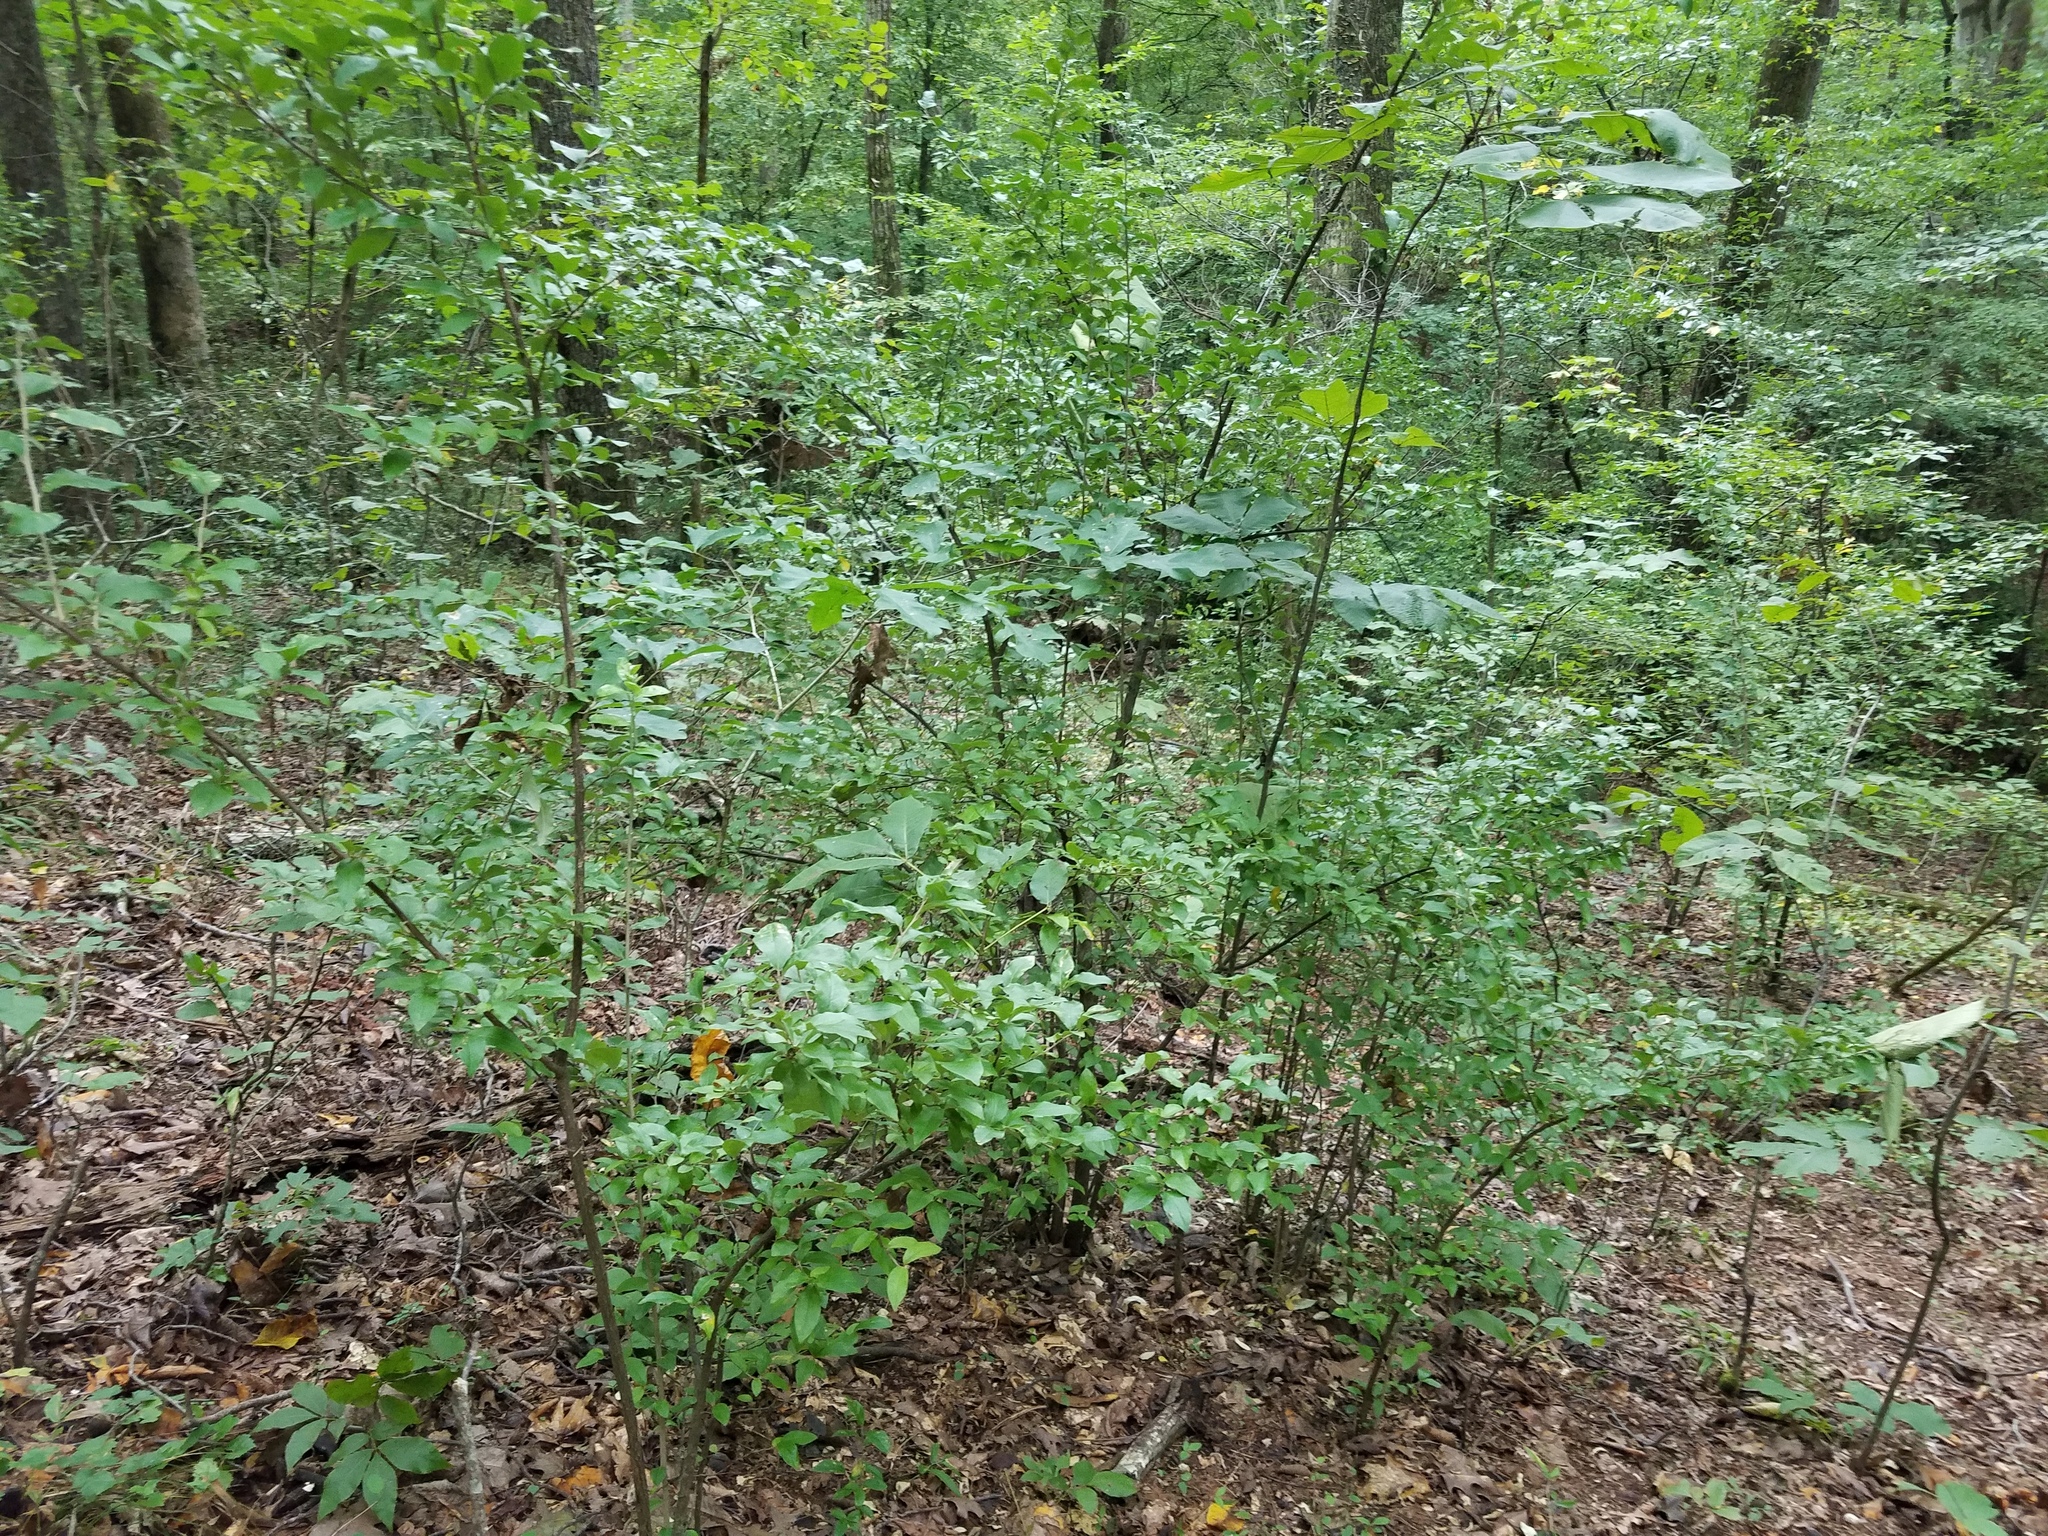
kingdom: Plantae
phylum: Tracheophyta
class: Magnoliopsida
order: Rosales
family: Elaeagnaceae
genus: Elaeagnus
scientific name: Elaeagnus umbellata
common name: Autumn olive
